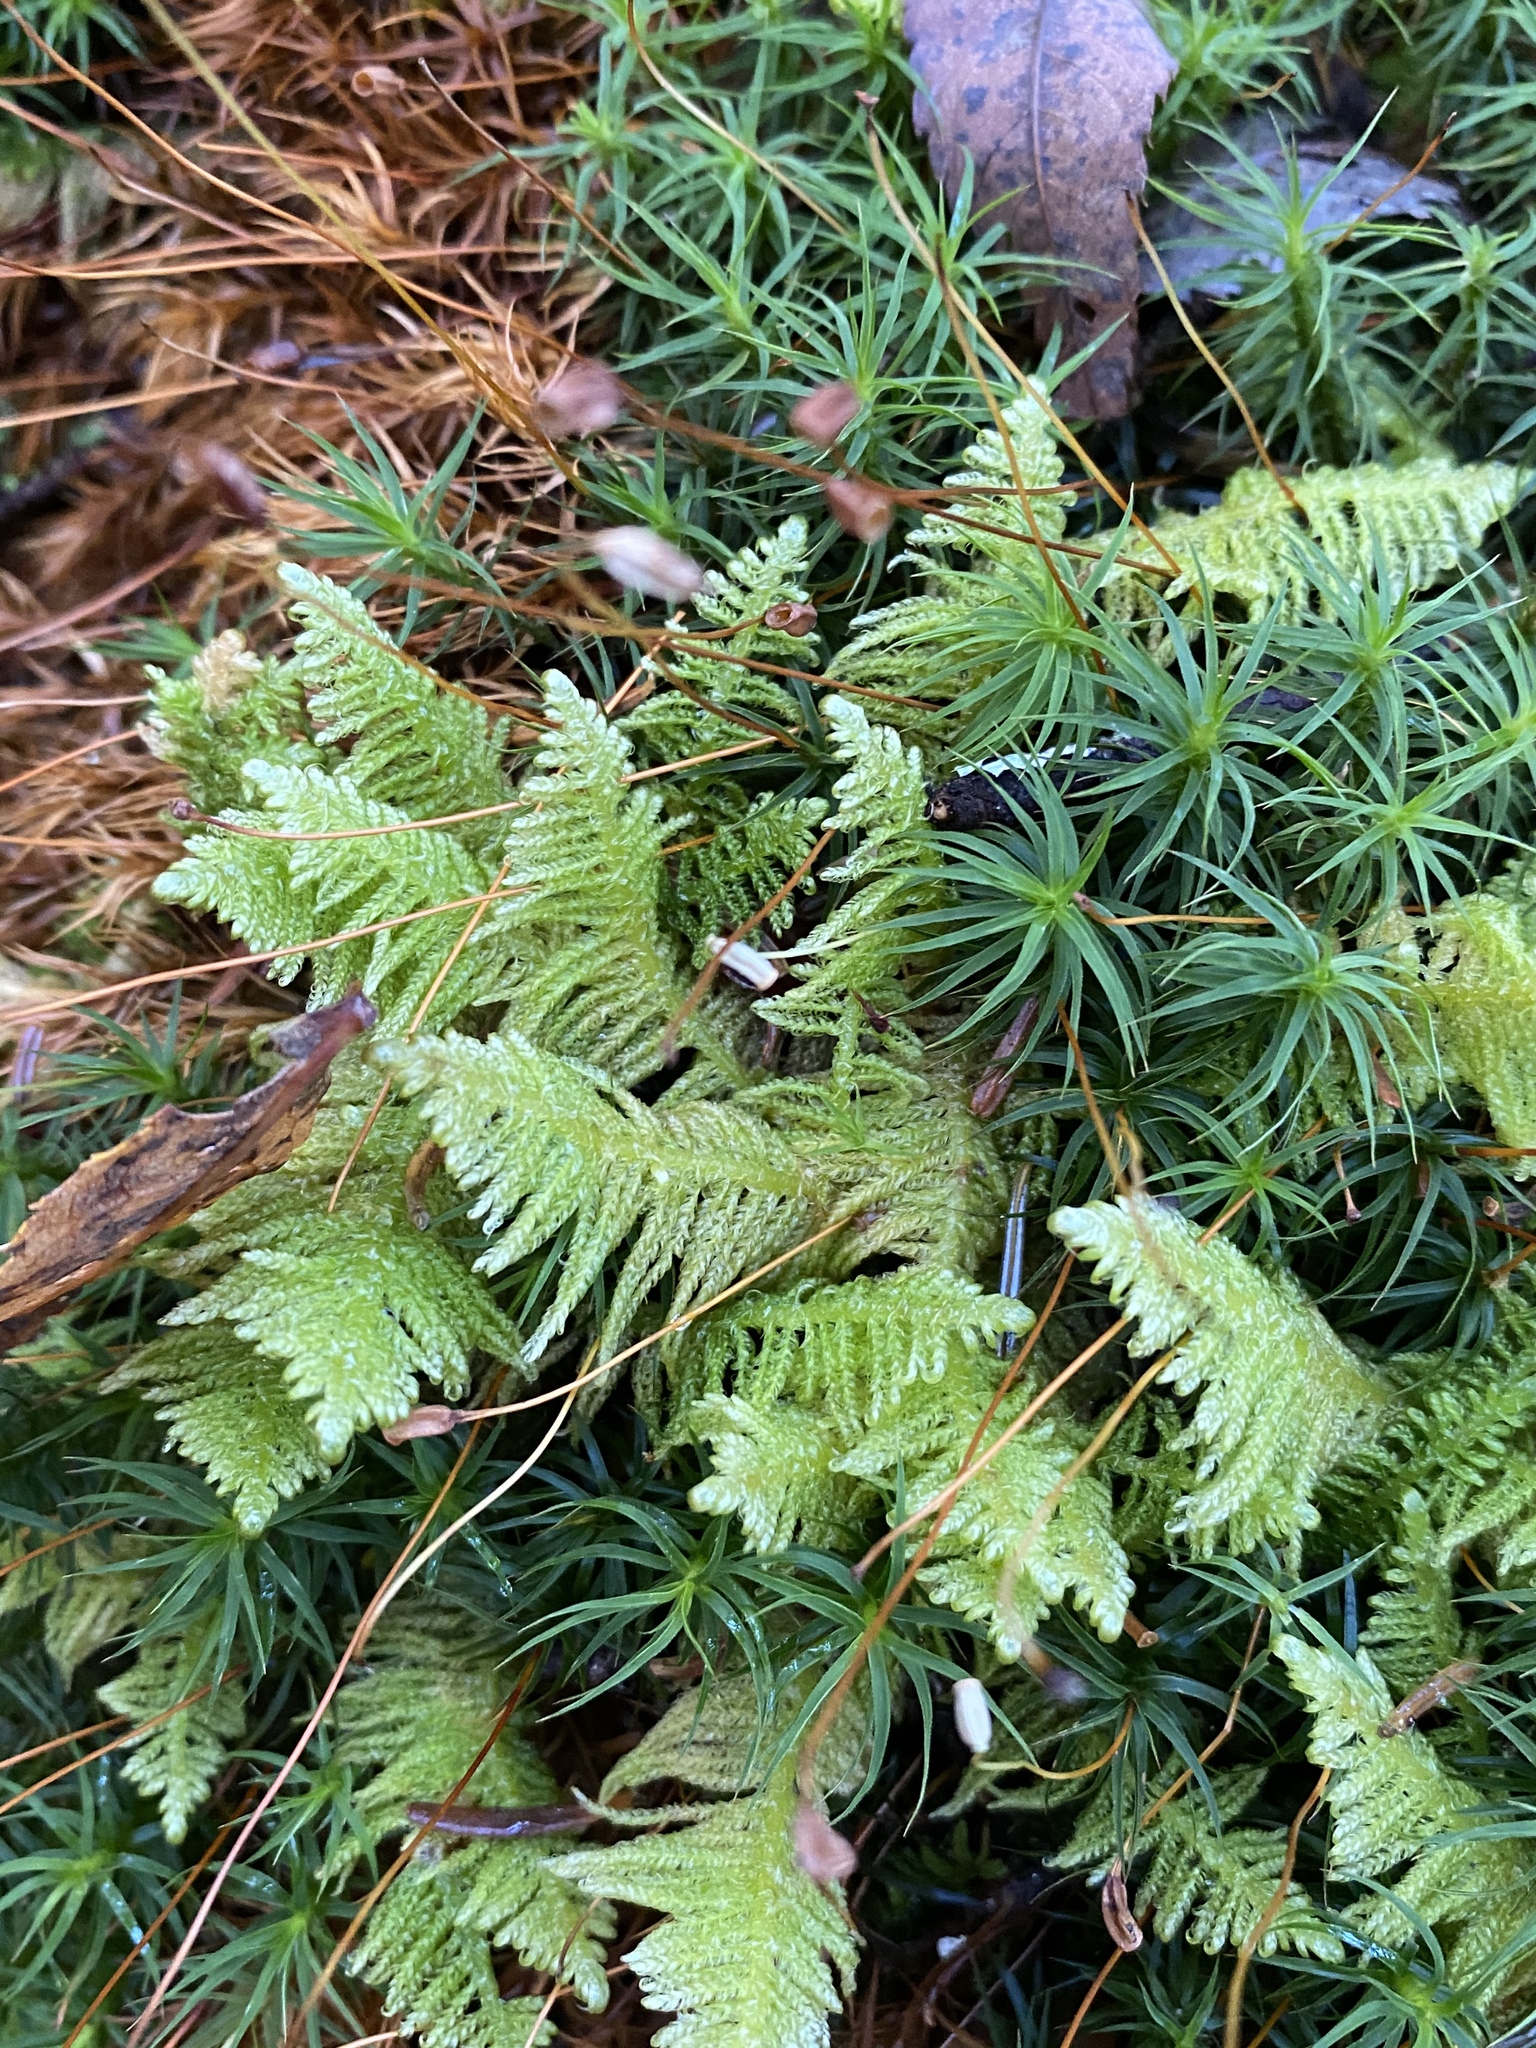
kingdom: Plantae
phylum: Bryophyta
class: Bryopsida
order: Hypnales
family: Pylaisiaceae
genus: Ptilium
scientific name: Ptilium crista-castrensis
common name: Knight's plume moss
